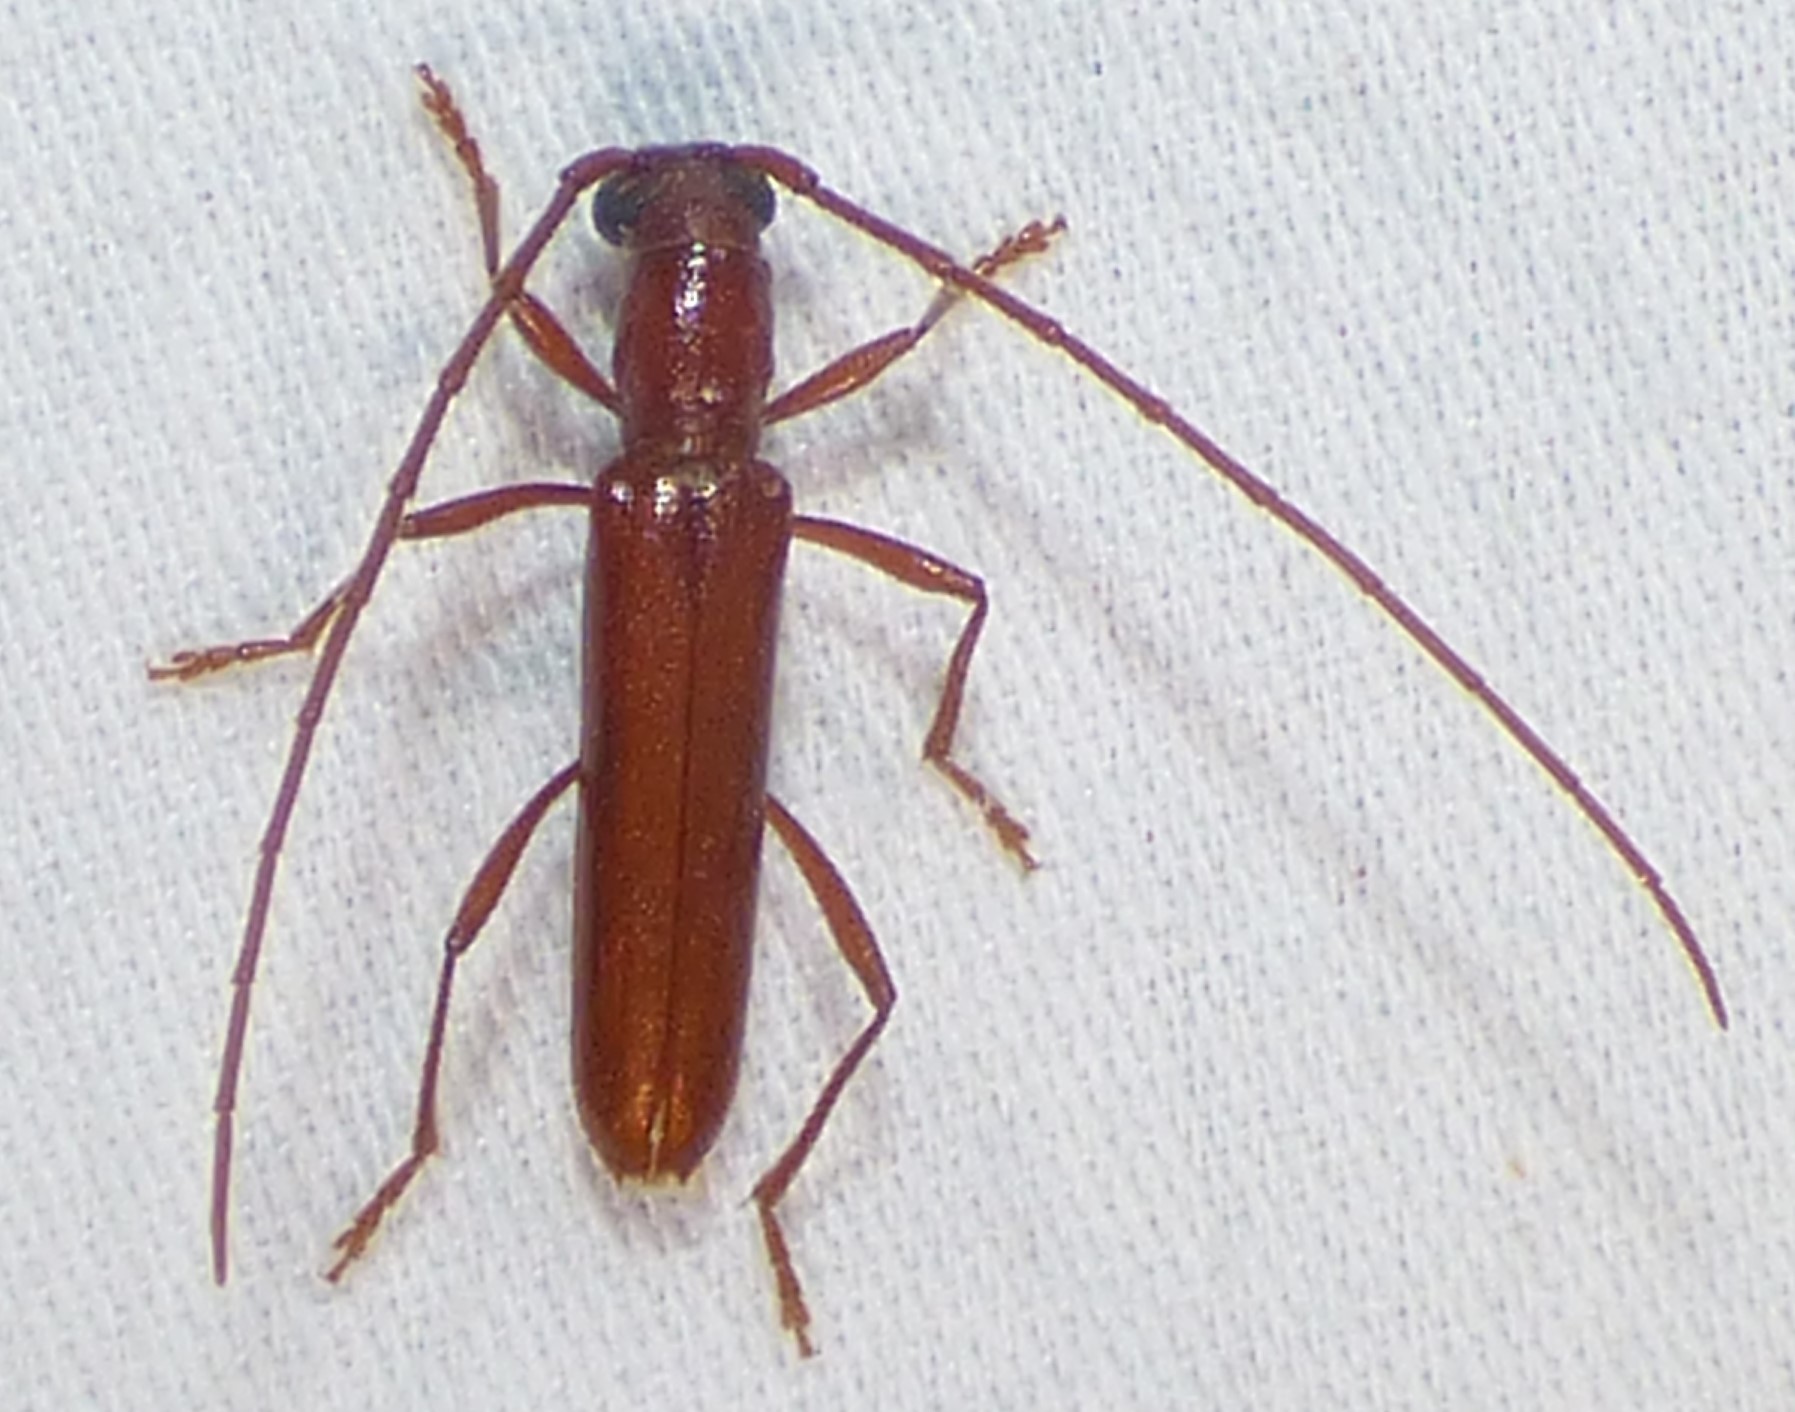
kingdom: Animalia
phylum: Arthropoda
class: Insecta
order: Coleoptera
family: Cerambycidae
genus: Psyrassa
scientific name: Psyrassa unicolor
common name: Branch pruner
